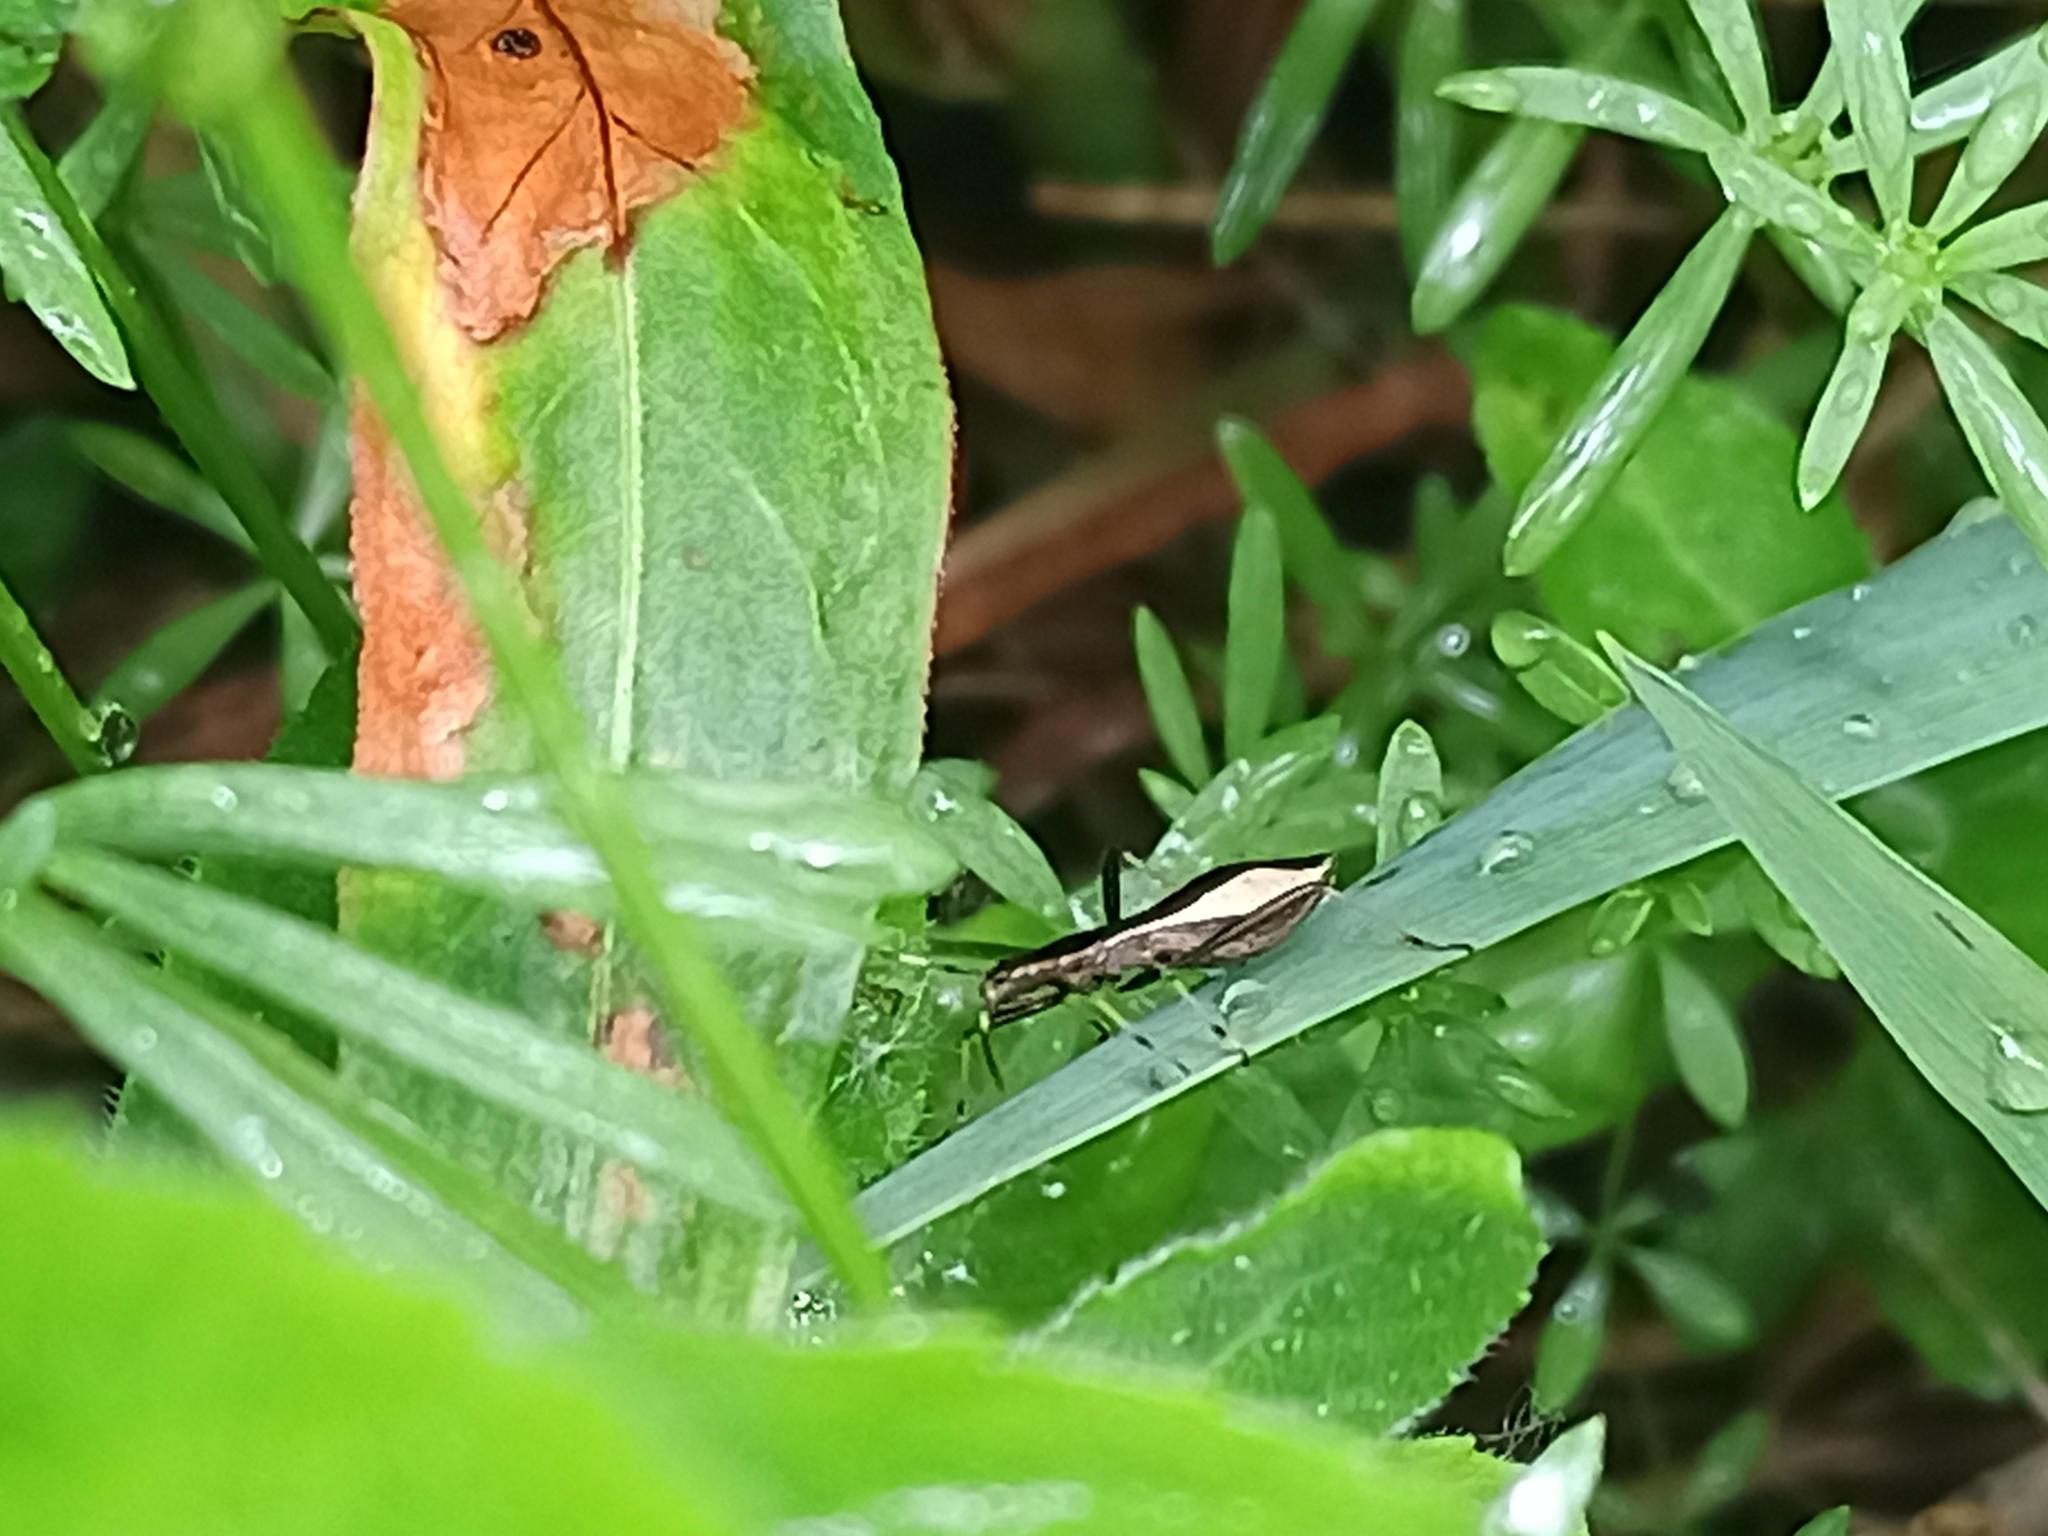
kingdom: Animalia
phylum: Arthropoda
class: Insecta
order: Hemiptera
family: Alydidae
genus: Micrelytra
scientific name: Micrelytra fossularum
